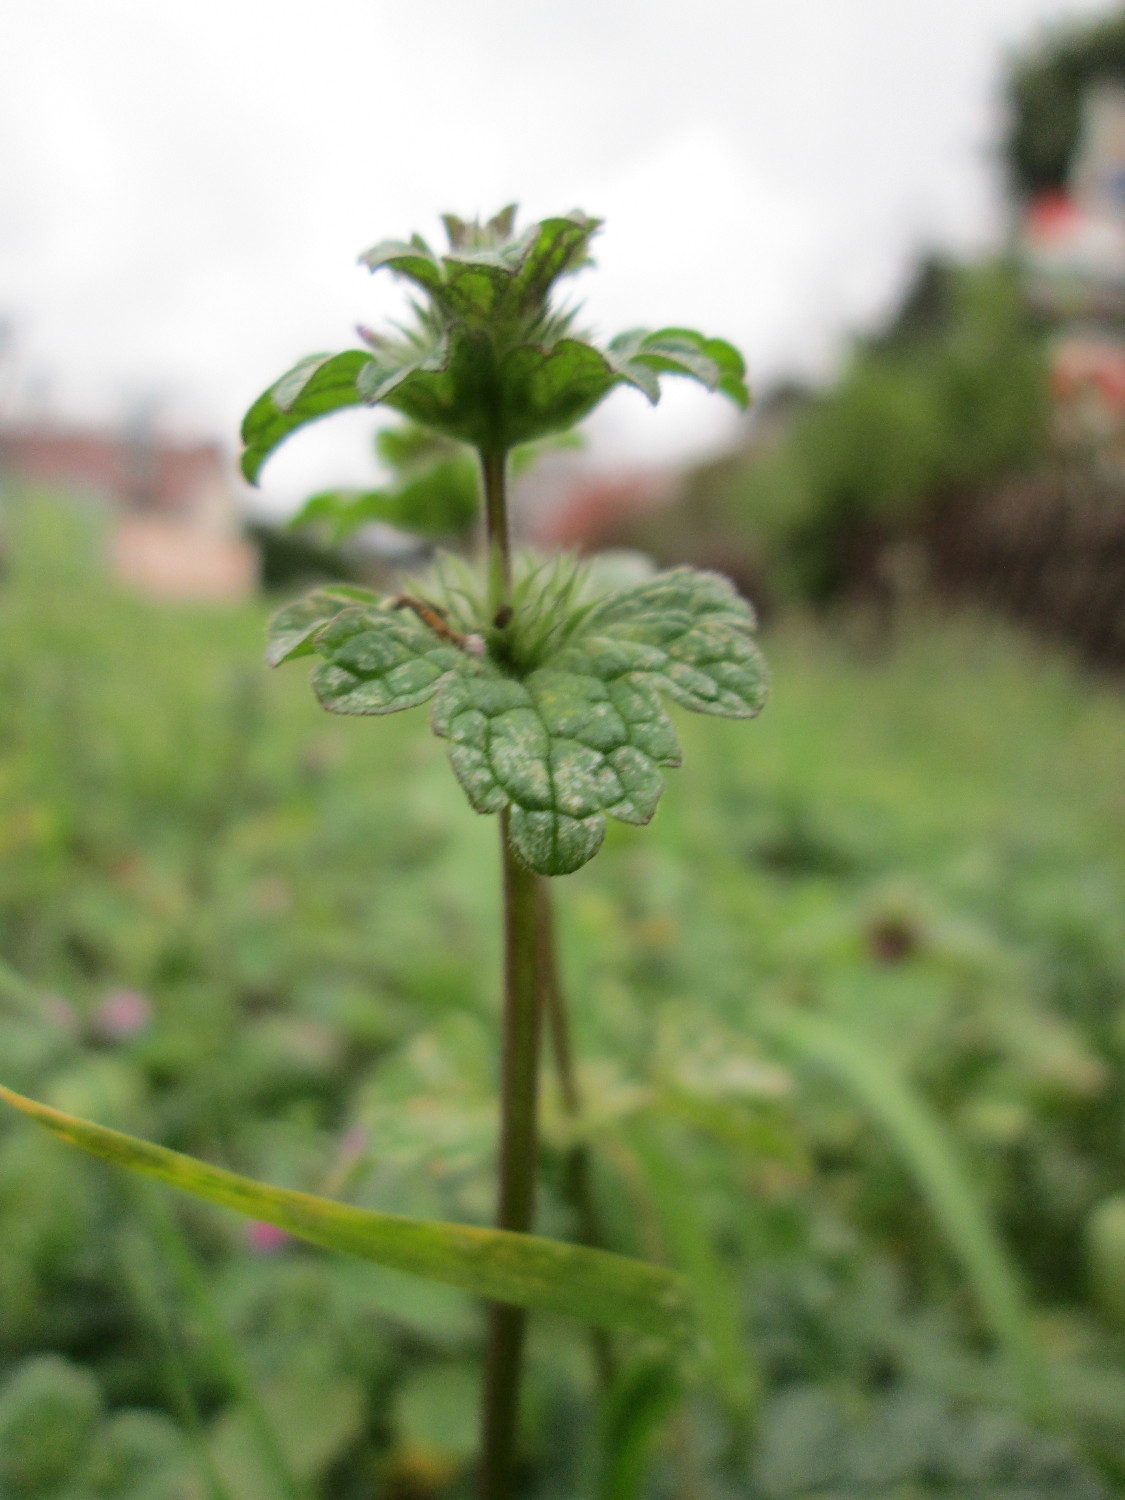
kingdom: Plantae
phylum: Tracheophyta
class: Magnoliopsida
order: Lamiales
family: Lamiaceae
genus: Lamium
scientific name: Lamium amplexicaule
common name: Henbit dead-nettle
